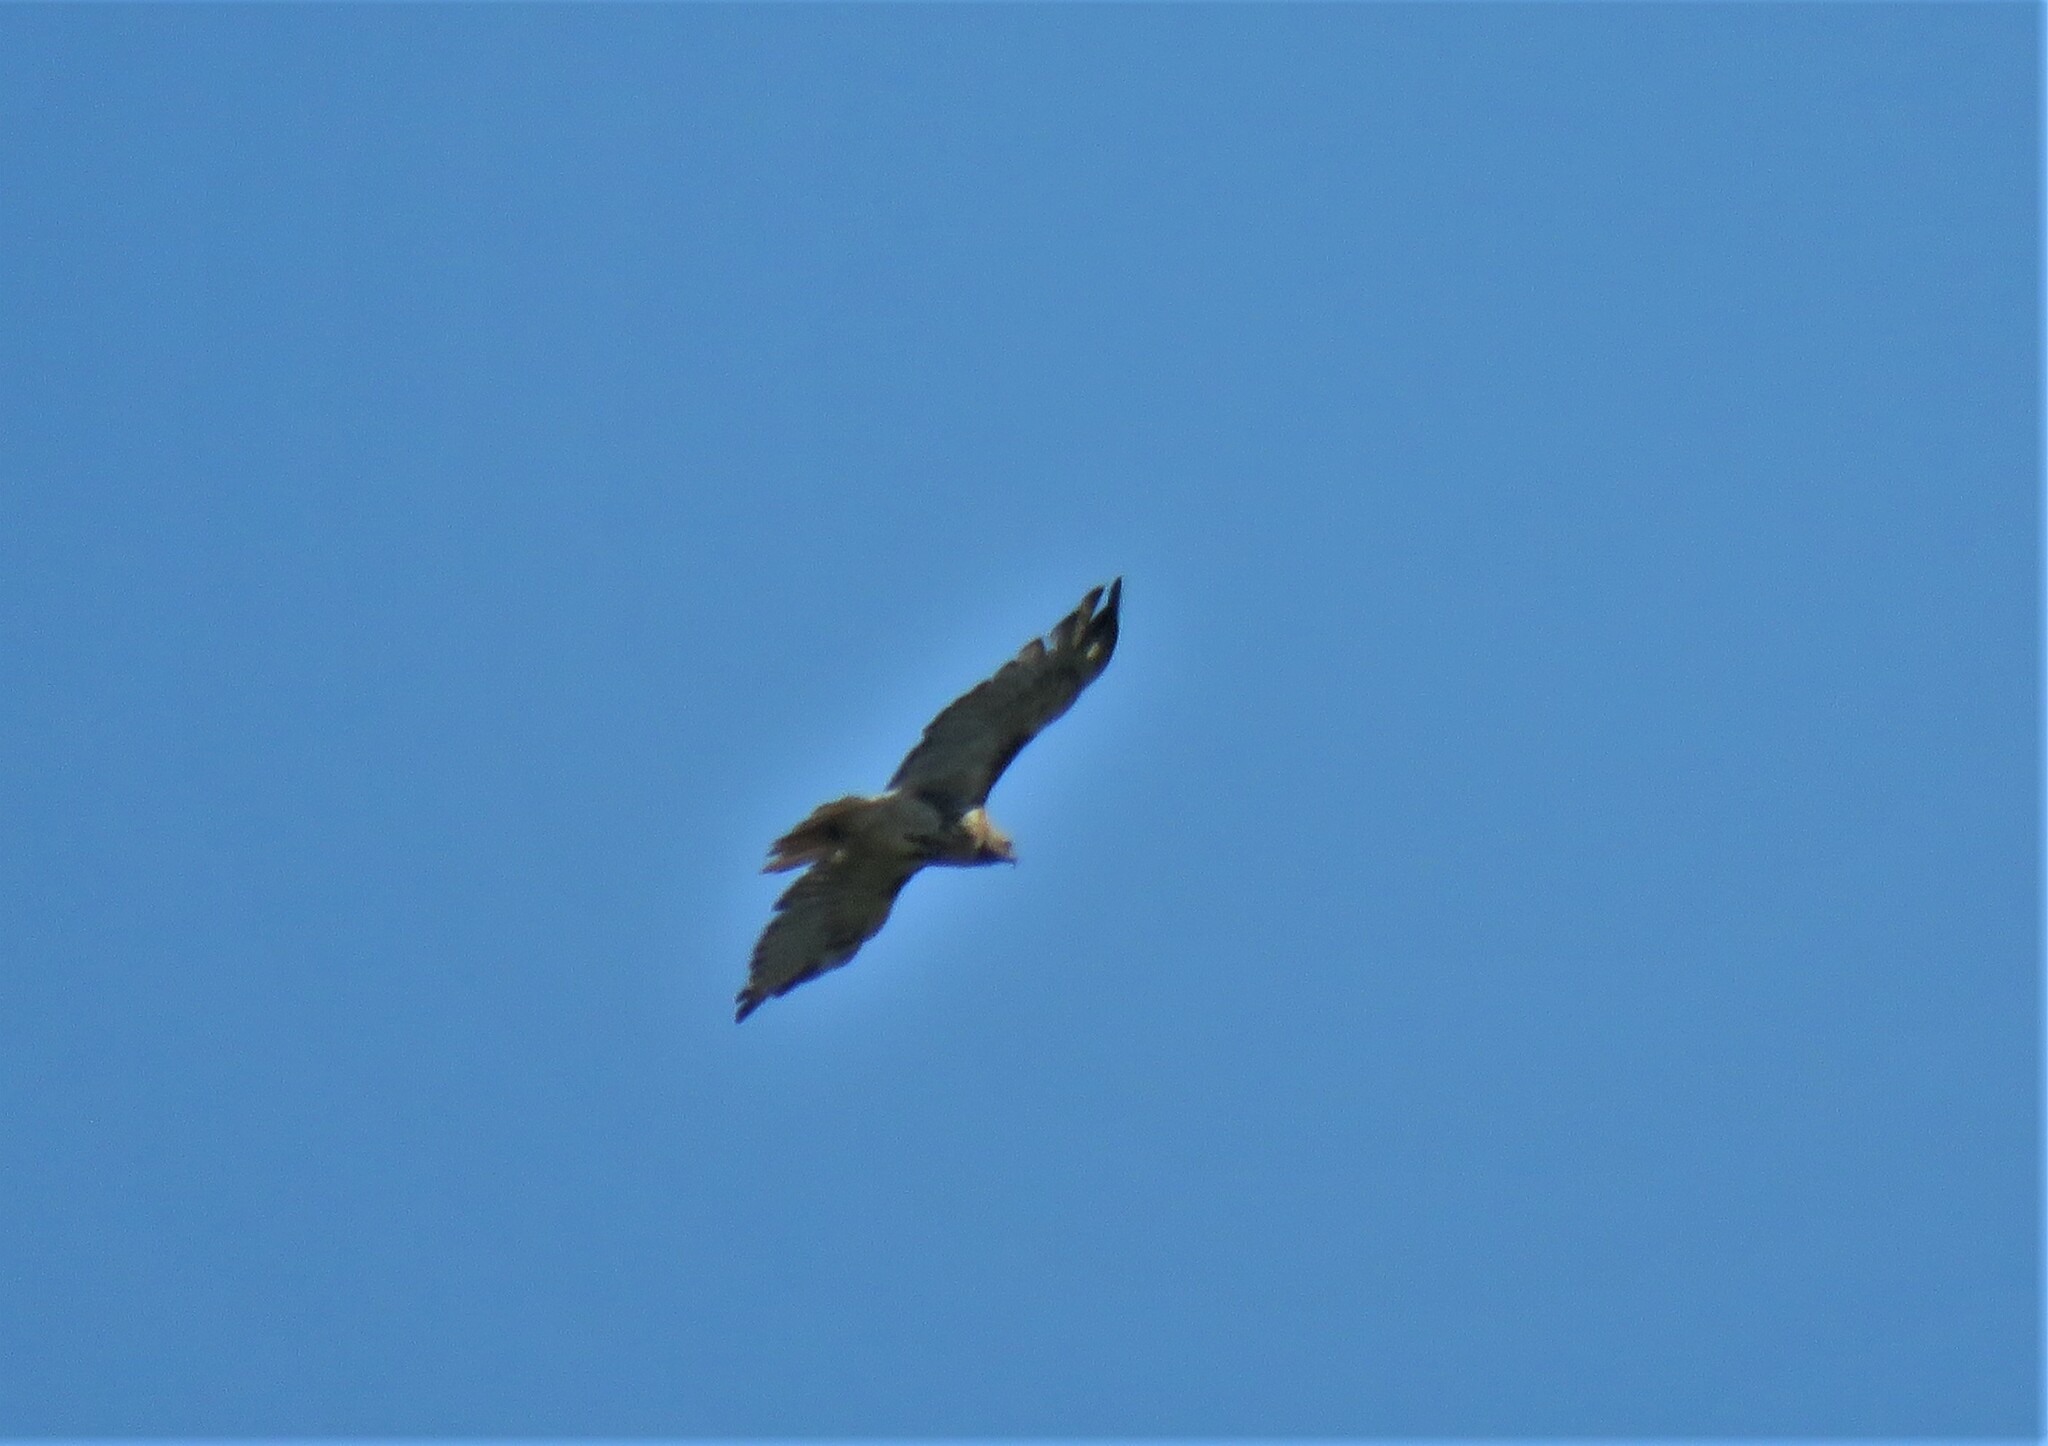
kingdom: Animalia
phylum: Chordata
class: Aves
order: Accipitriformes
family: Accipitridae
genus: Buteo
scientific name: Buteo jamaicensis
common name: Red-tailed hawk
